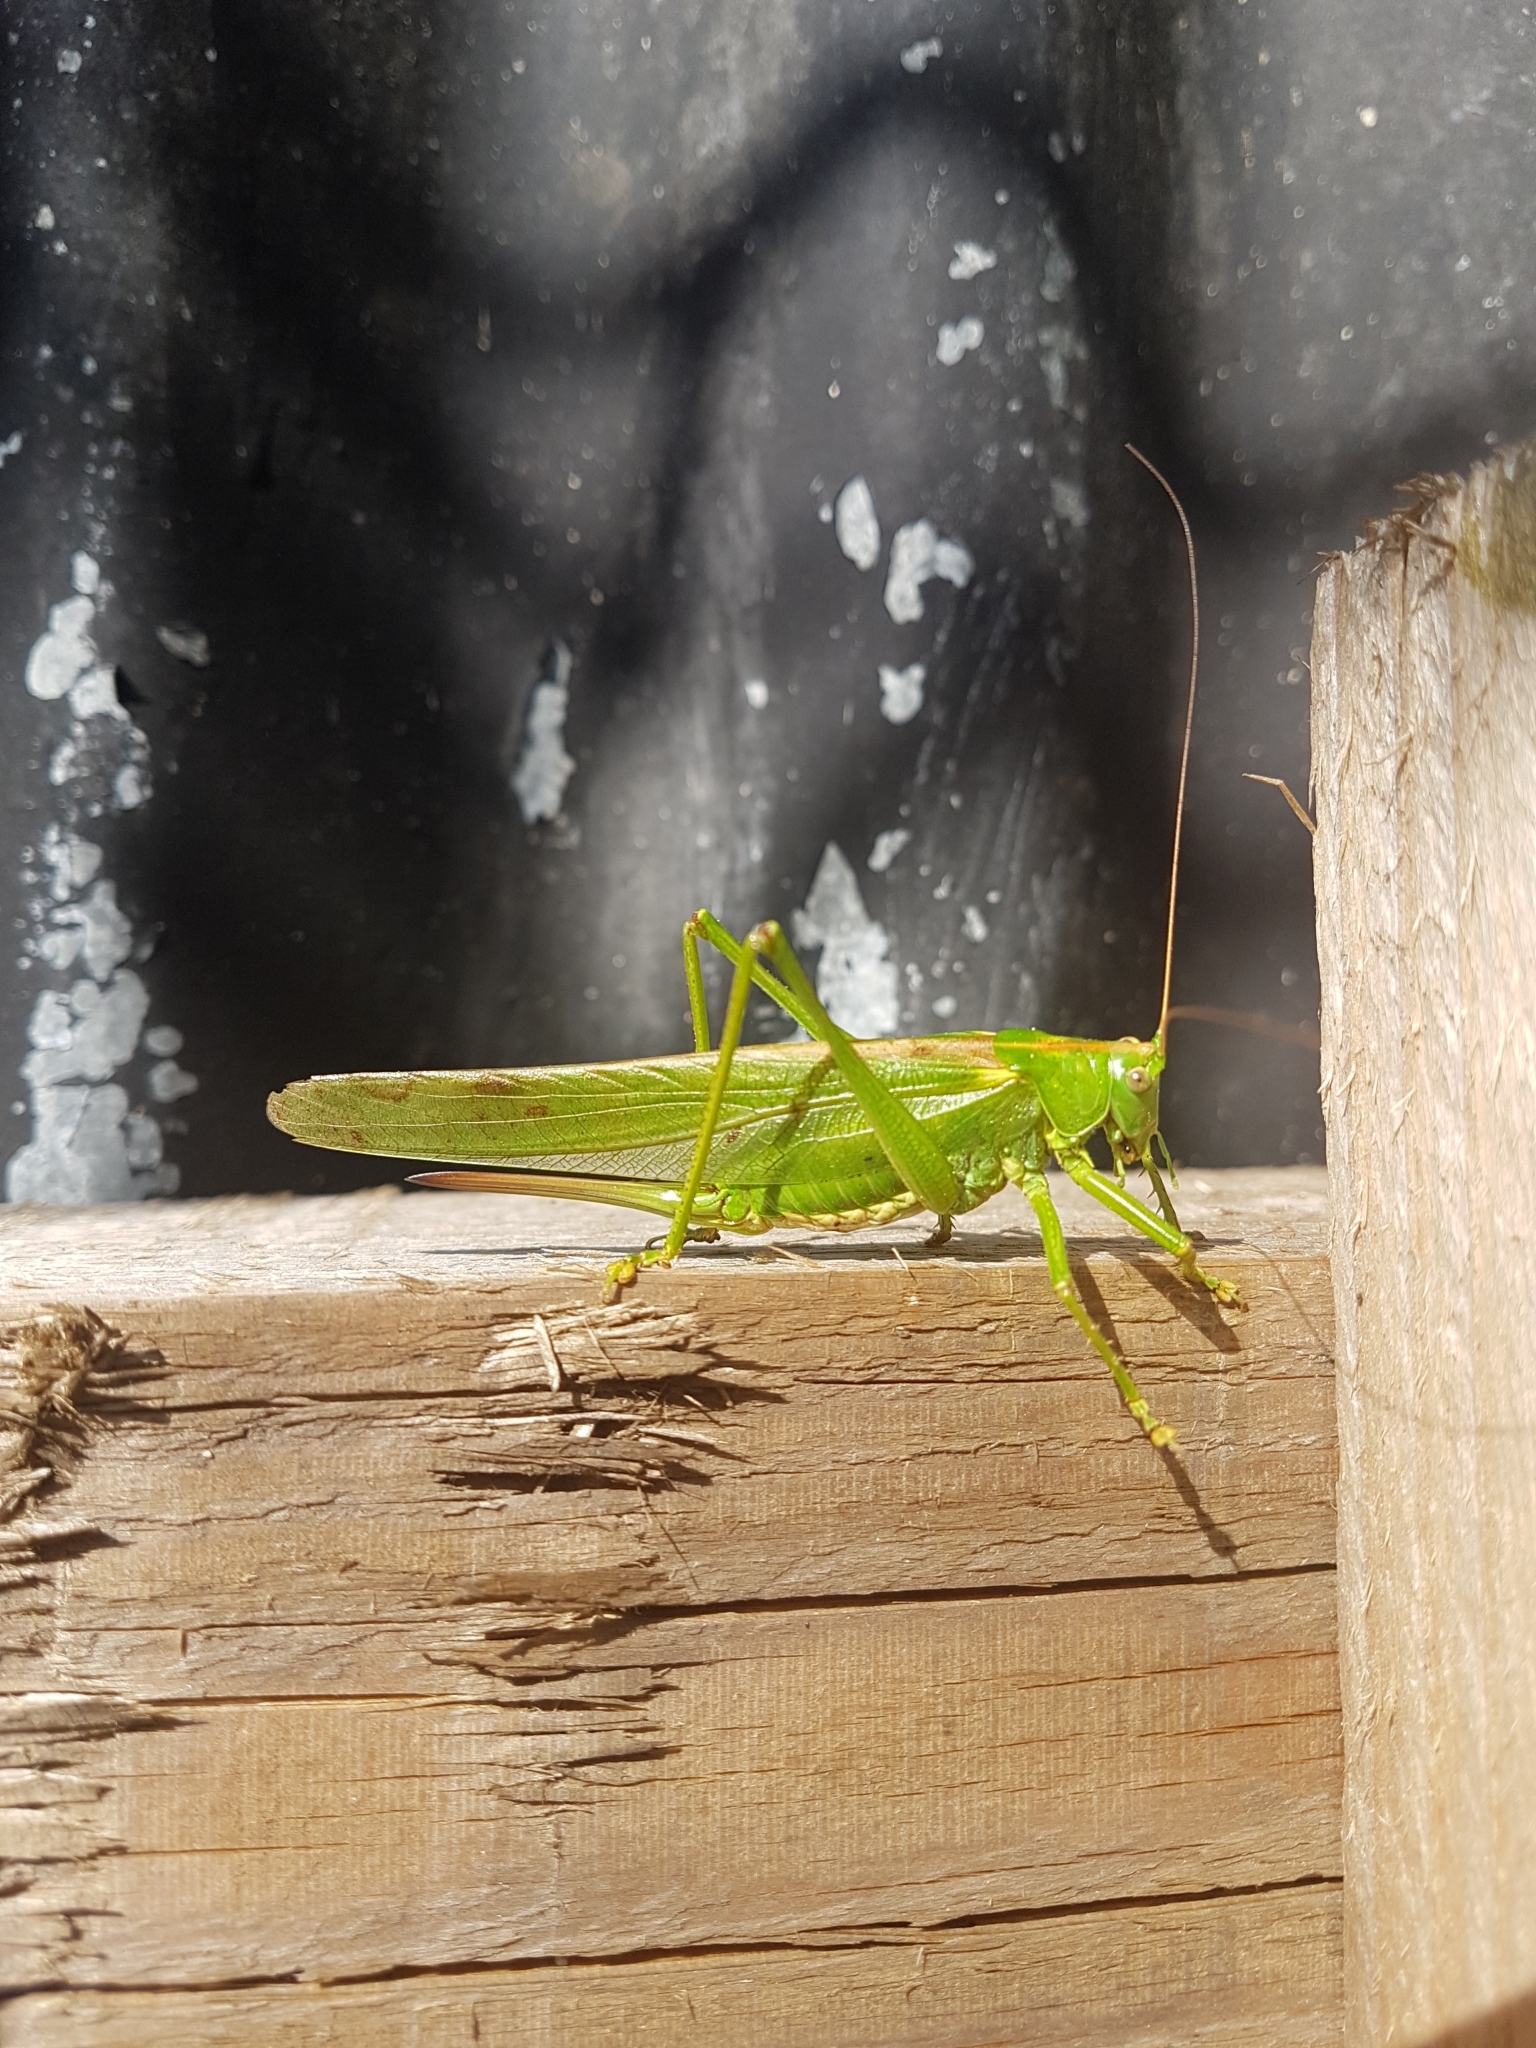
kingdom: Animalia
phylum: Arthropoda
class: Insecta
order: Orthoptera
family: Tettigoniidae
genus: Tettigonia
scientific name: Tettigonia viridissima
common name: Great green bush-cricket
